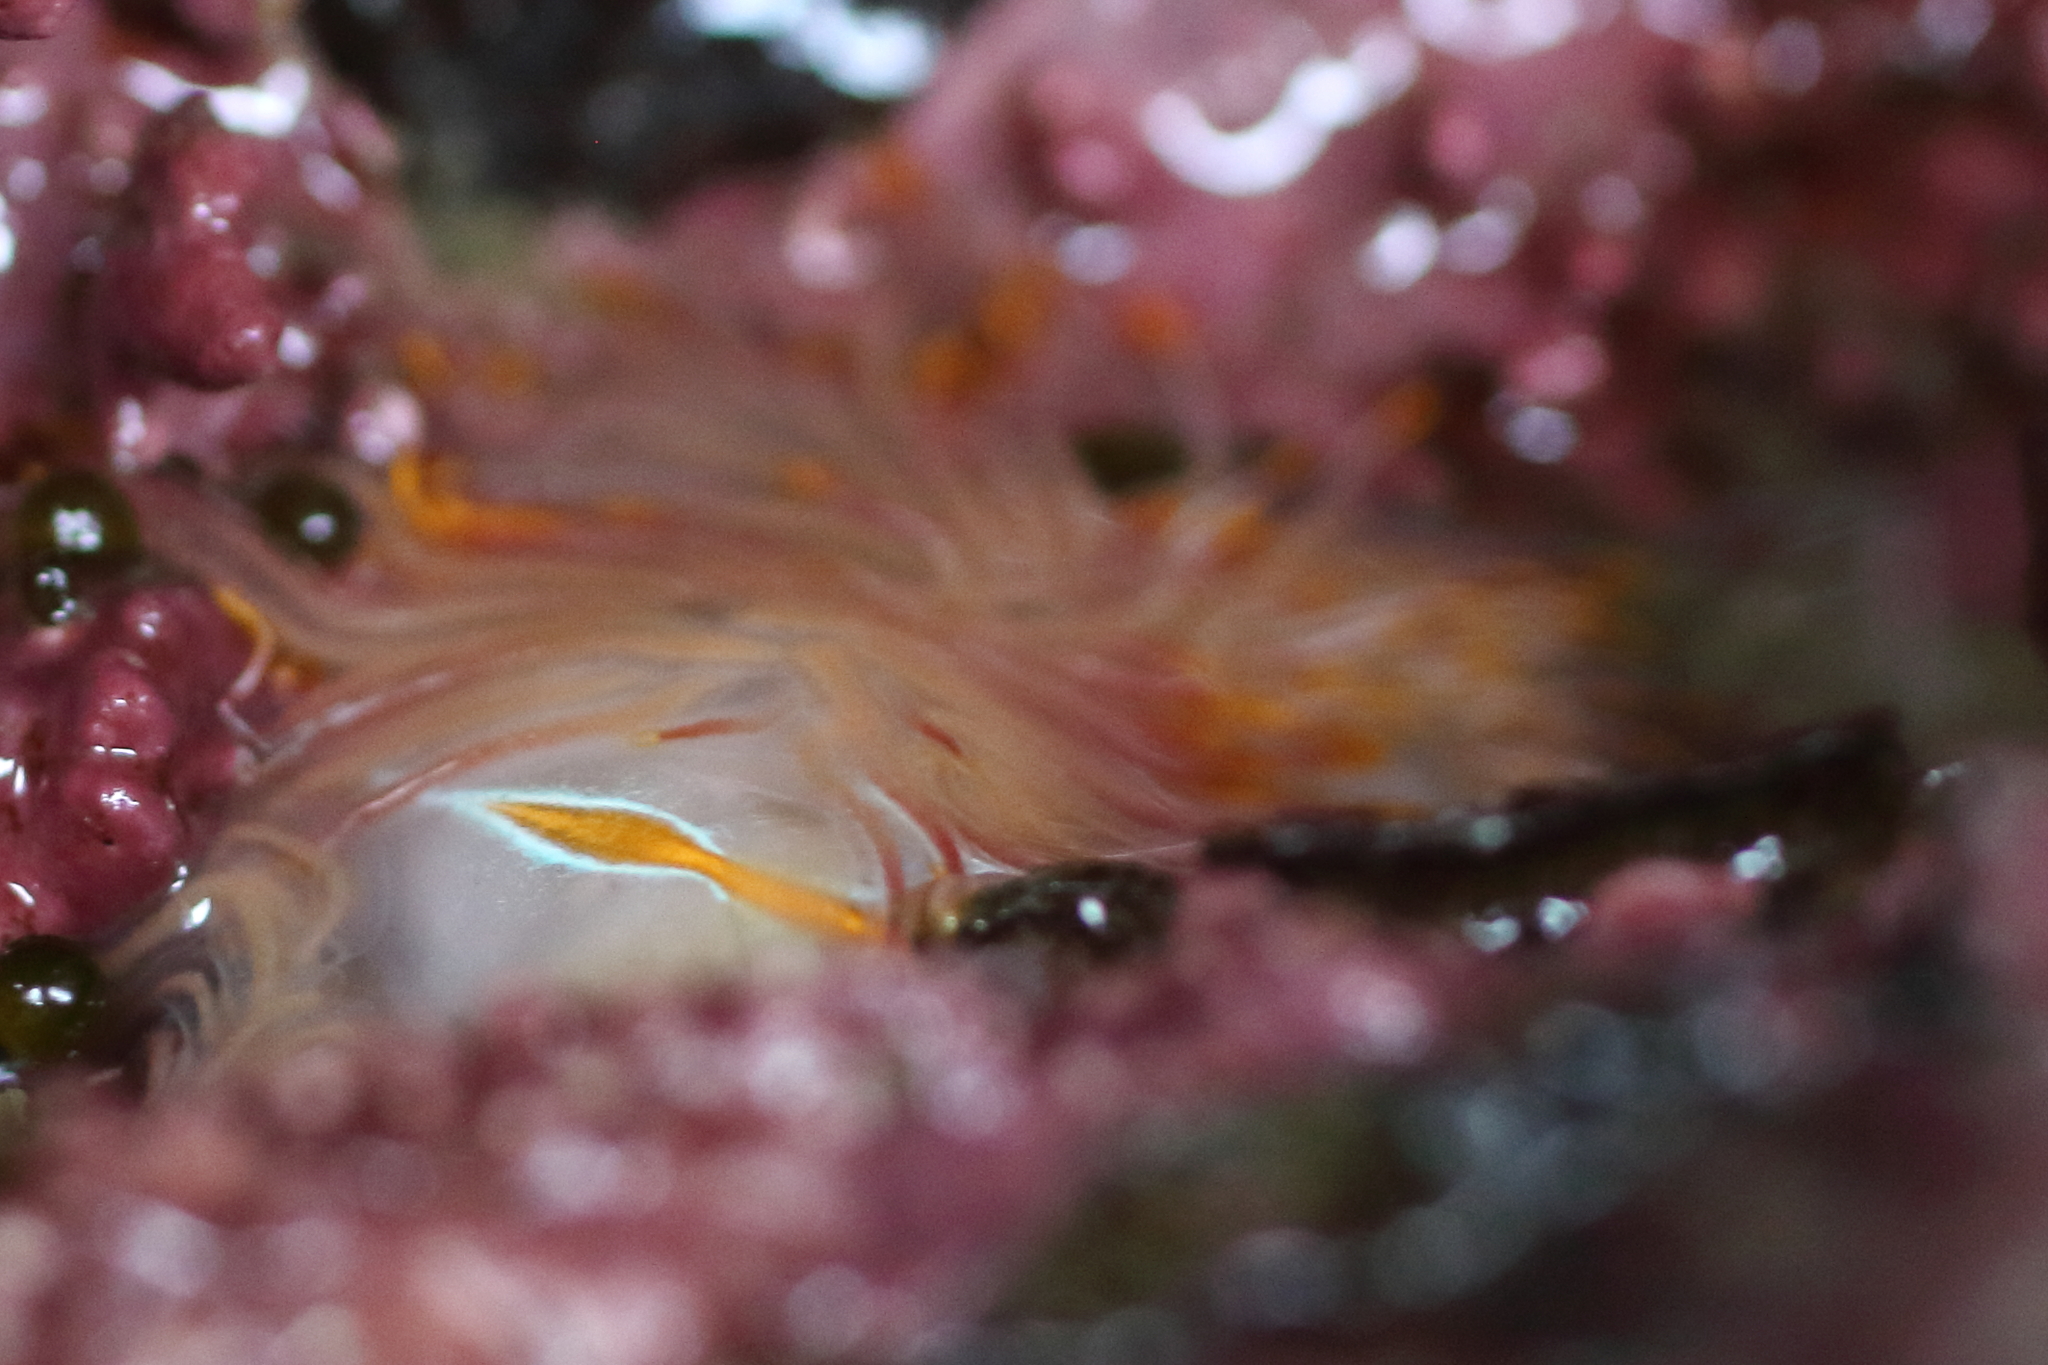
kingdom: Animalia
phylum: Mollusca
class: Gastropoda
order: Nudibranchia
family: Myrrhinidae
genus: Hermissenda
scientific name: Hermissenda crassicornis
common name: Hermissenda
